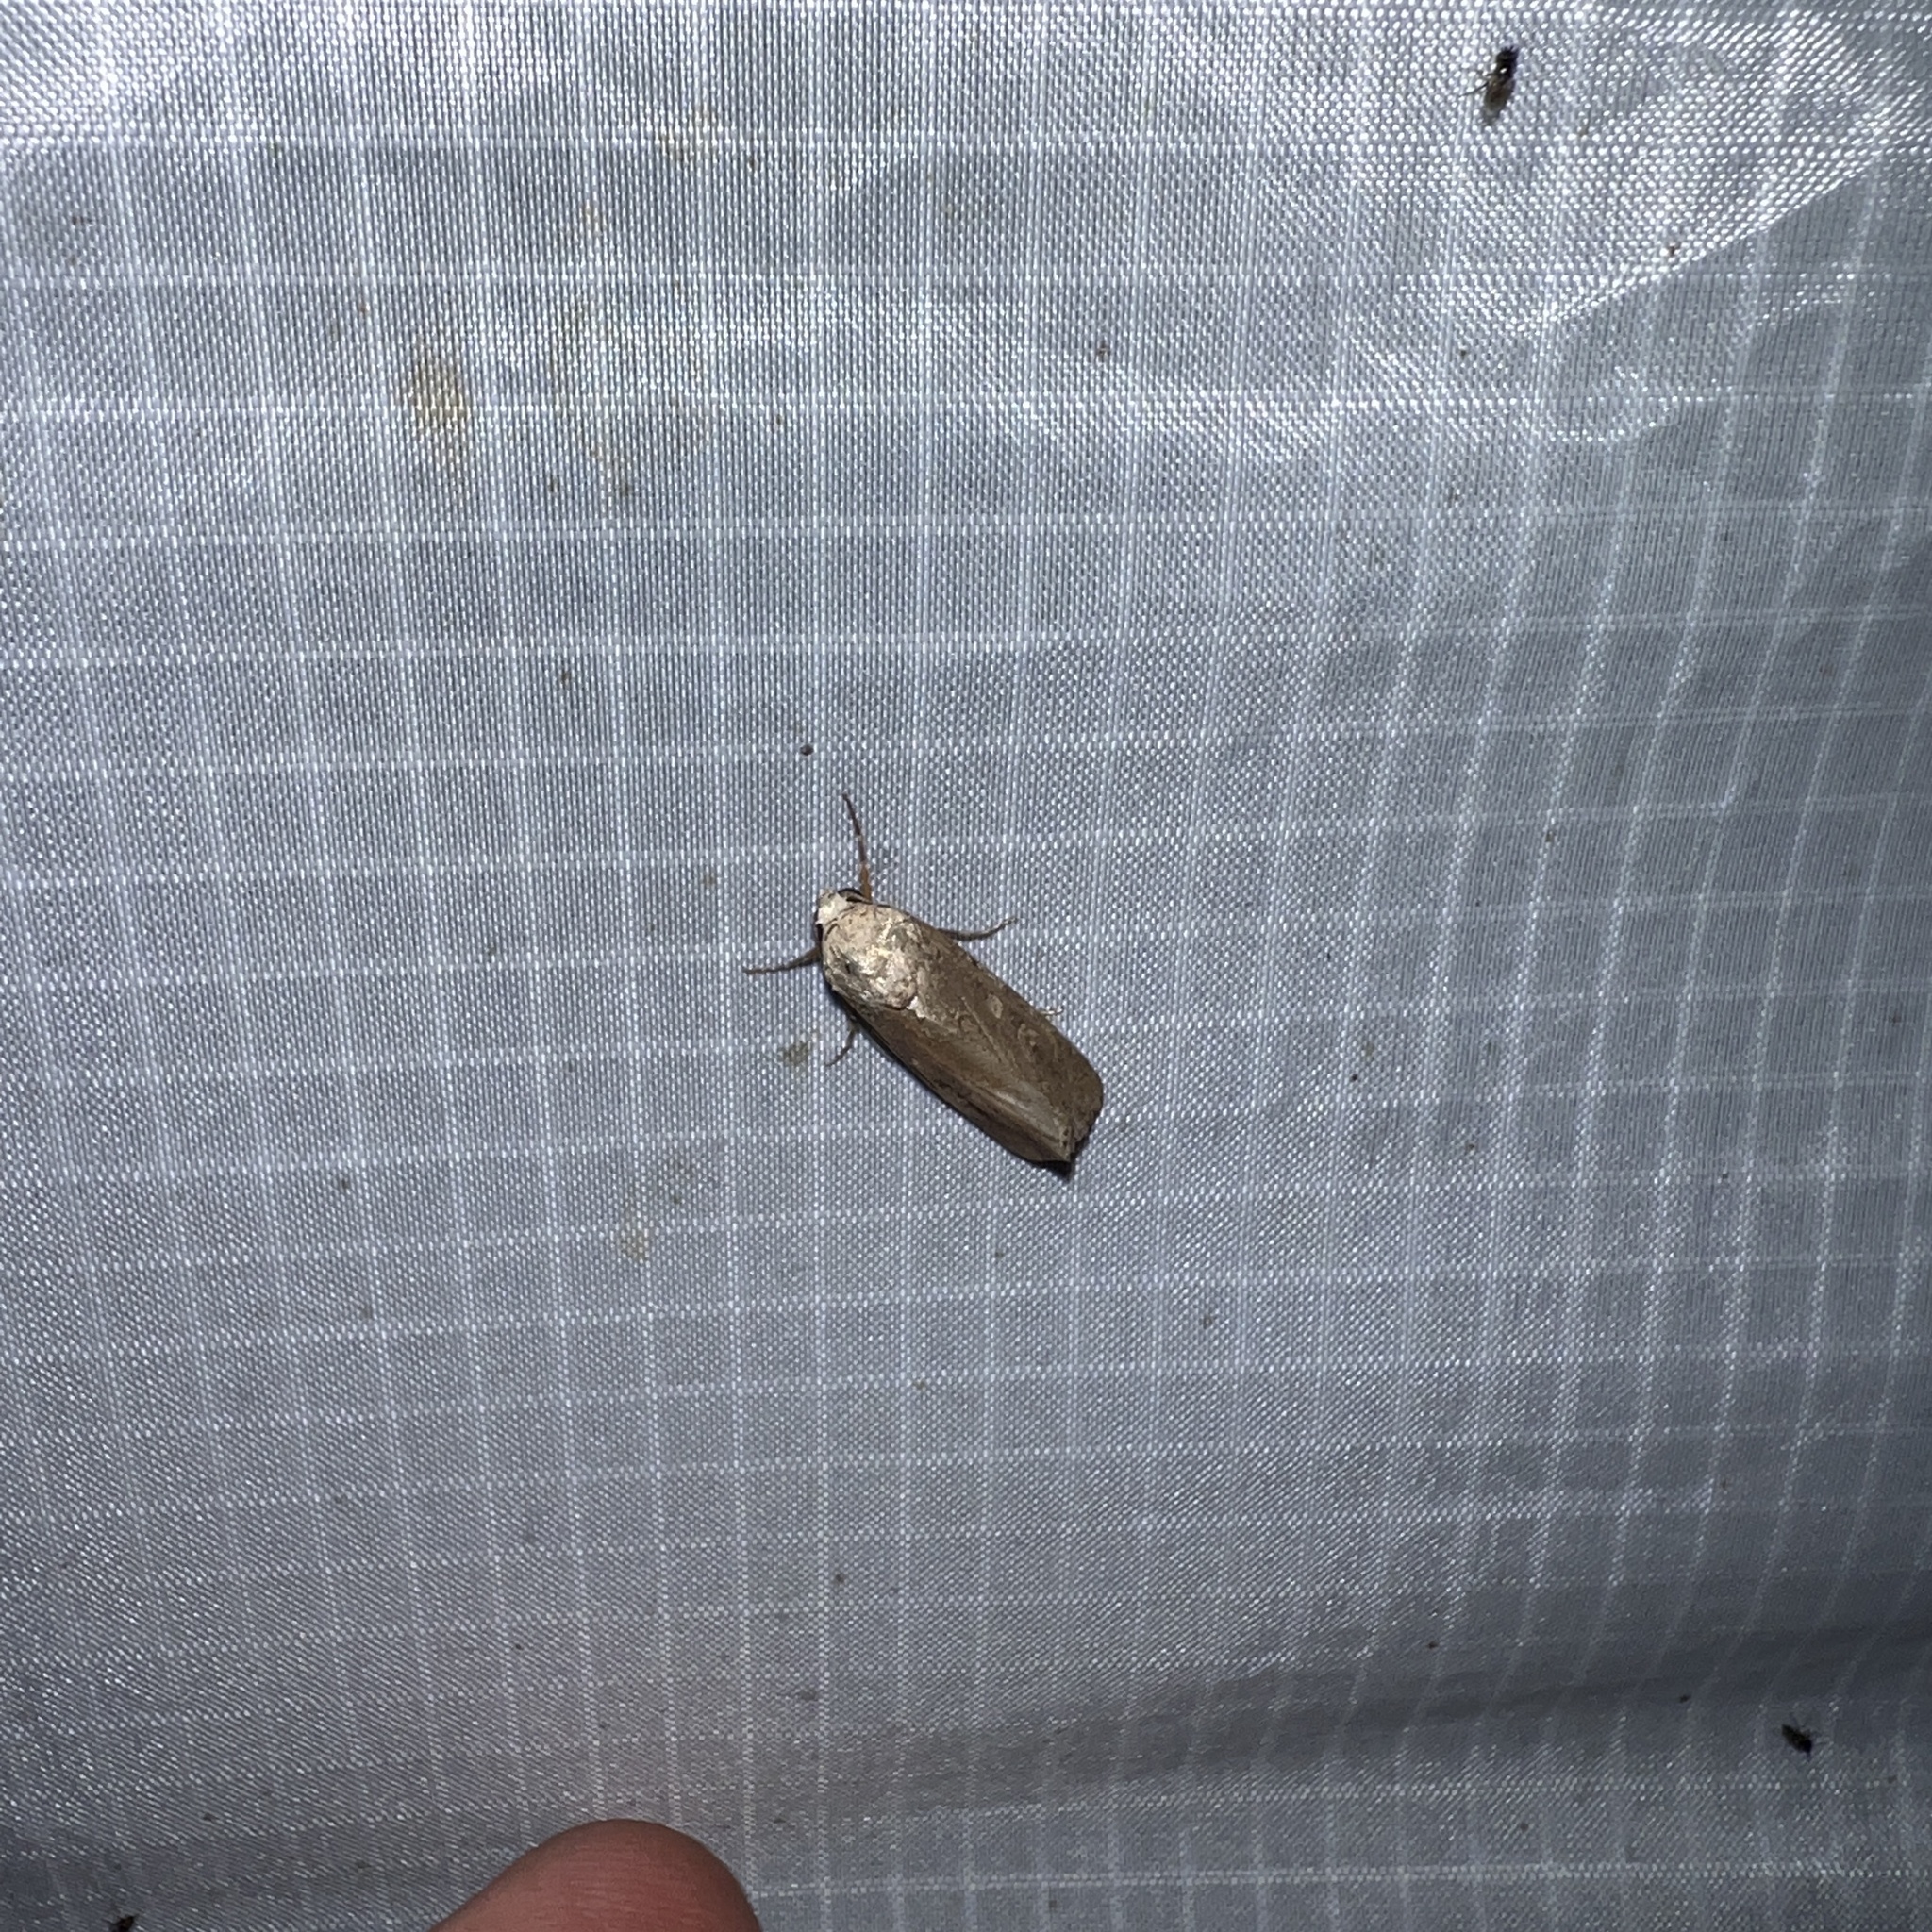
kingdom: Animalia
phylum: Arthropoda
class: Insecta
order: Lepidoptera
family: Noctuidae
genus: Spodoptera
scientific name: Spodoptera exigua
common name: Beet armyworm
